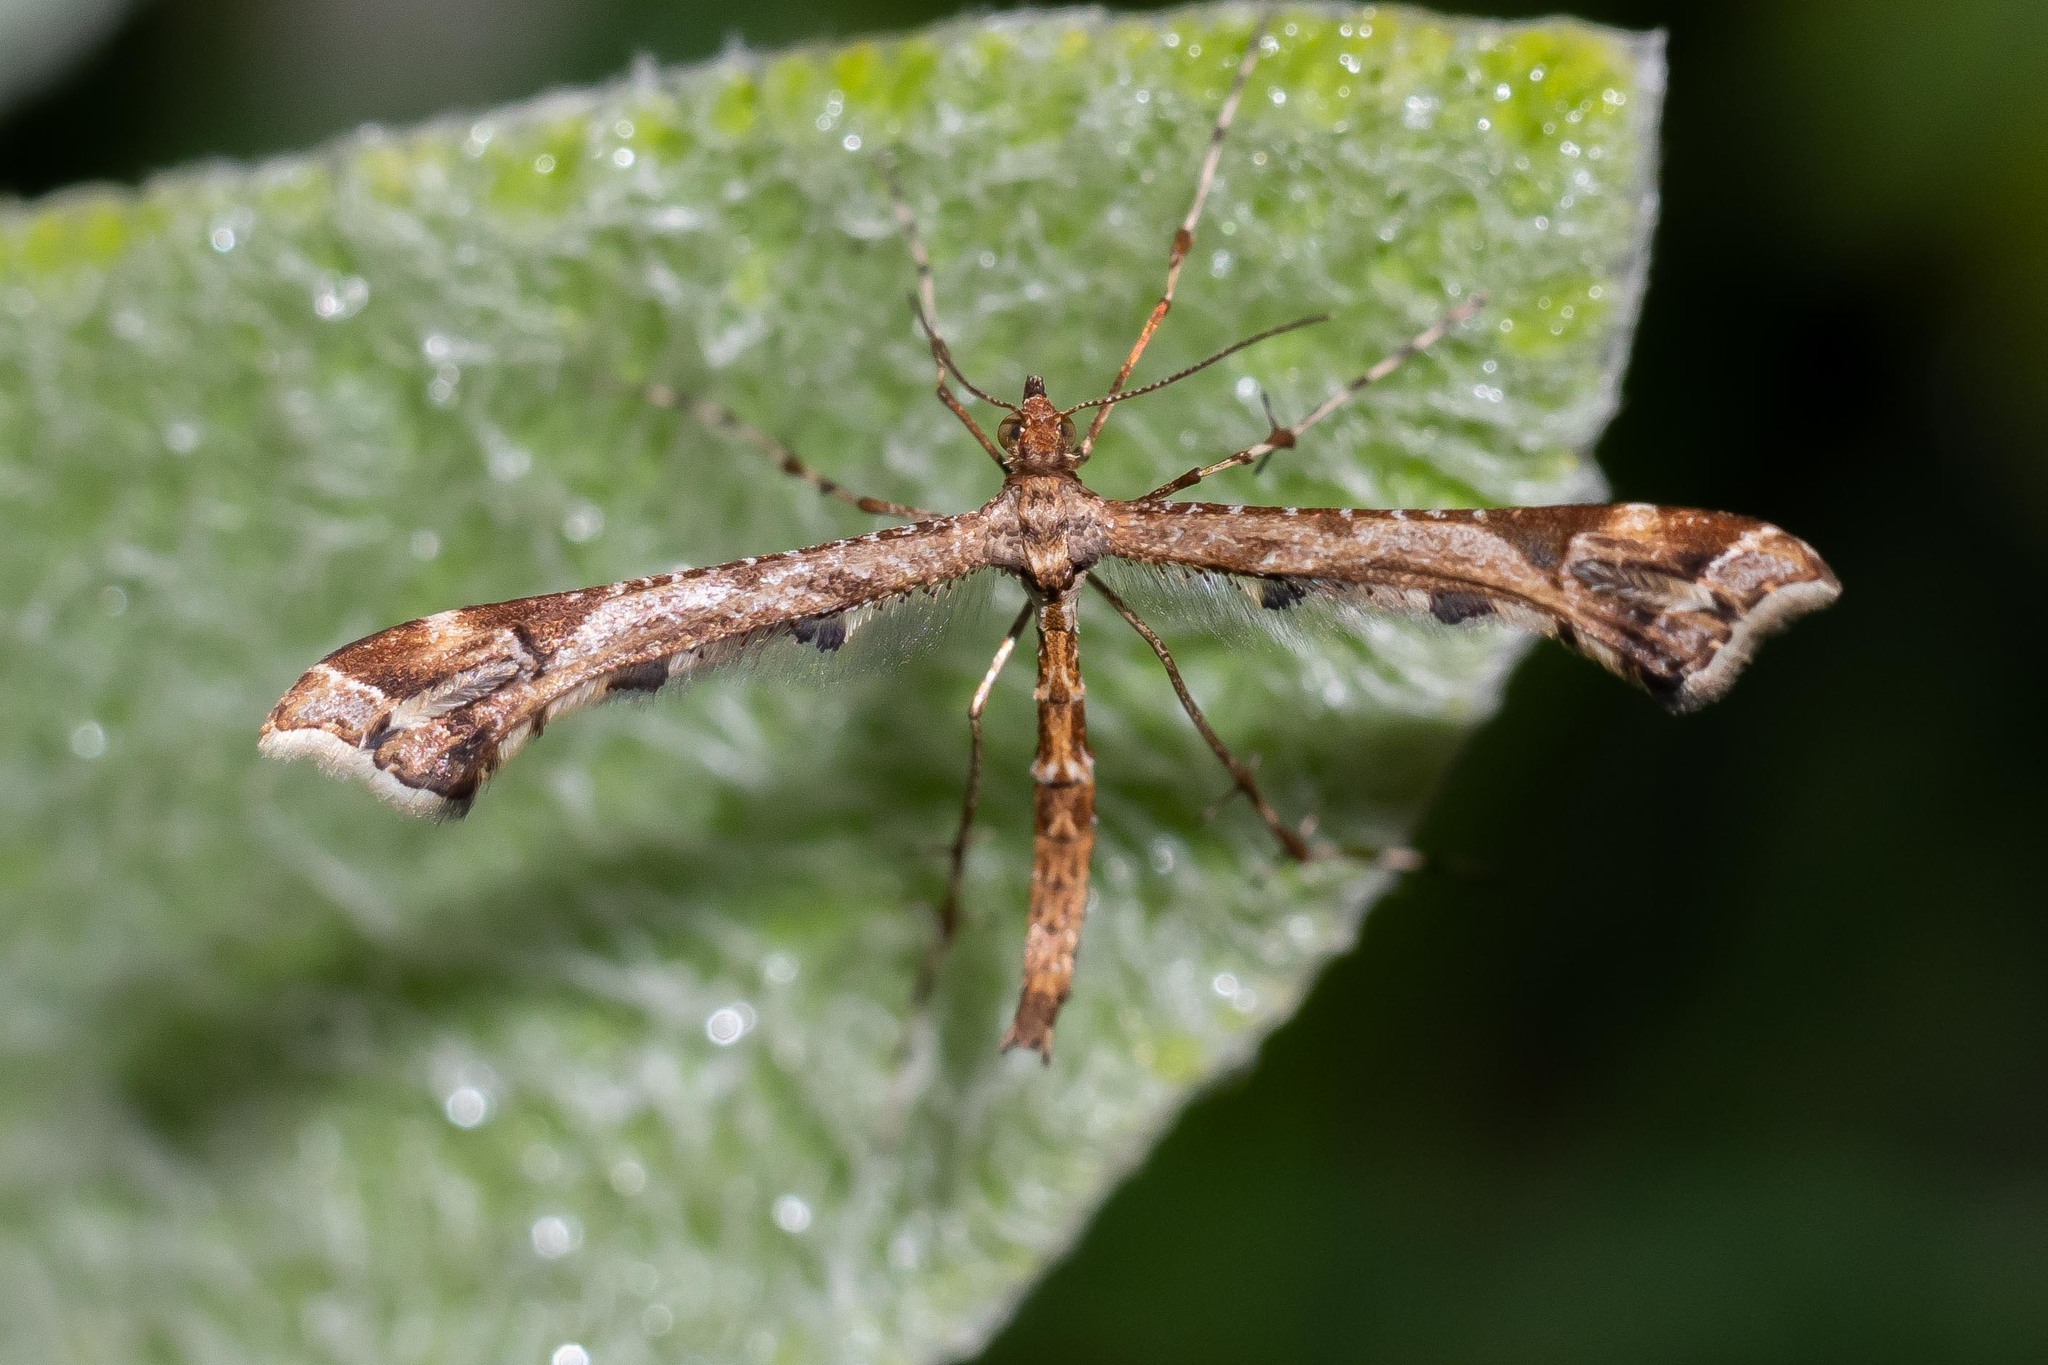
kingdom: Animalia
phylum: Arthropoda
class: Insecta
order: Lepidoptera
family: Pterophoridae
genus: Amblyptilia
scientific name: Amblyptilia acanthadactyla
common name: Beautiful plume
